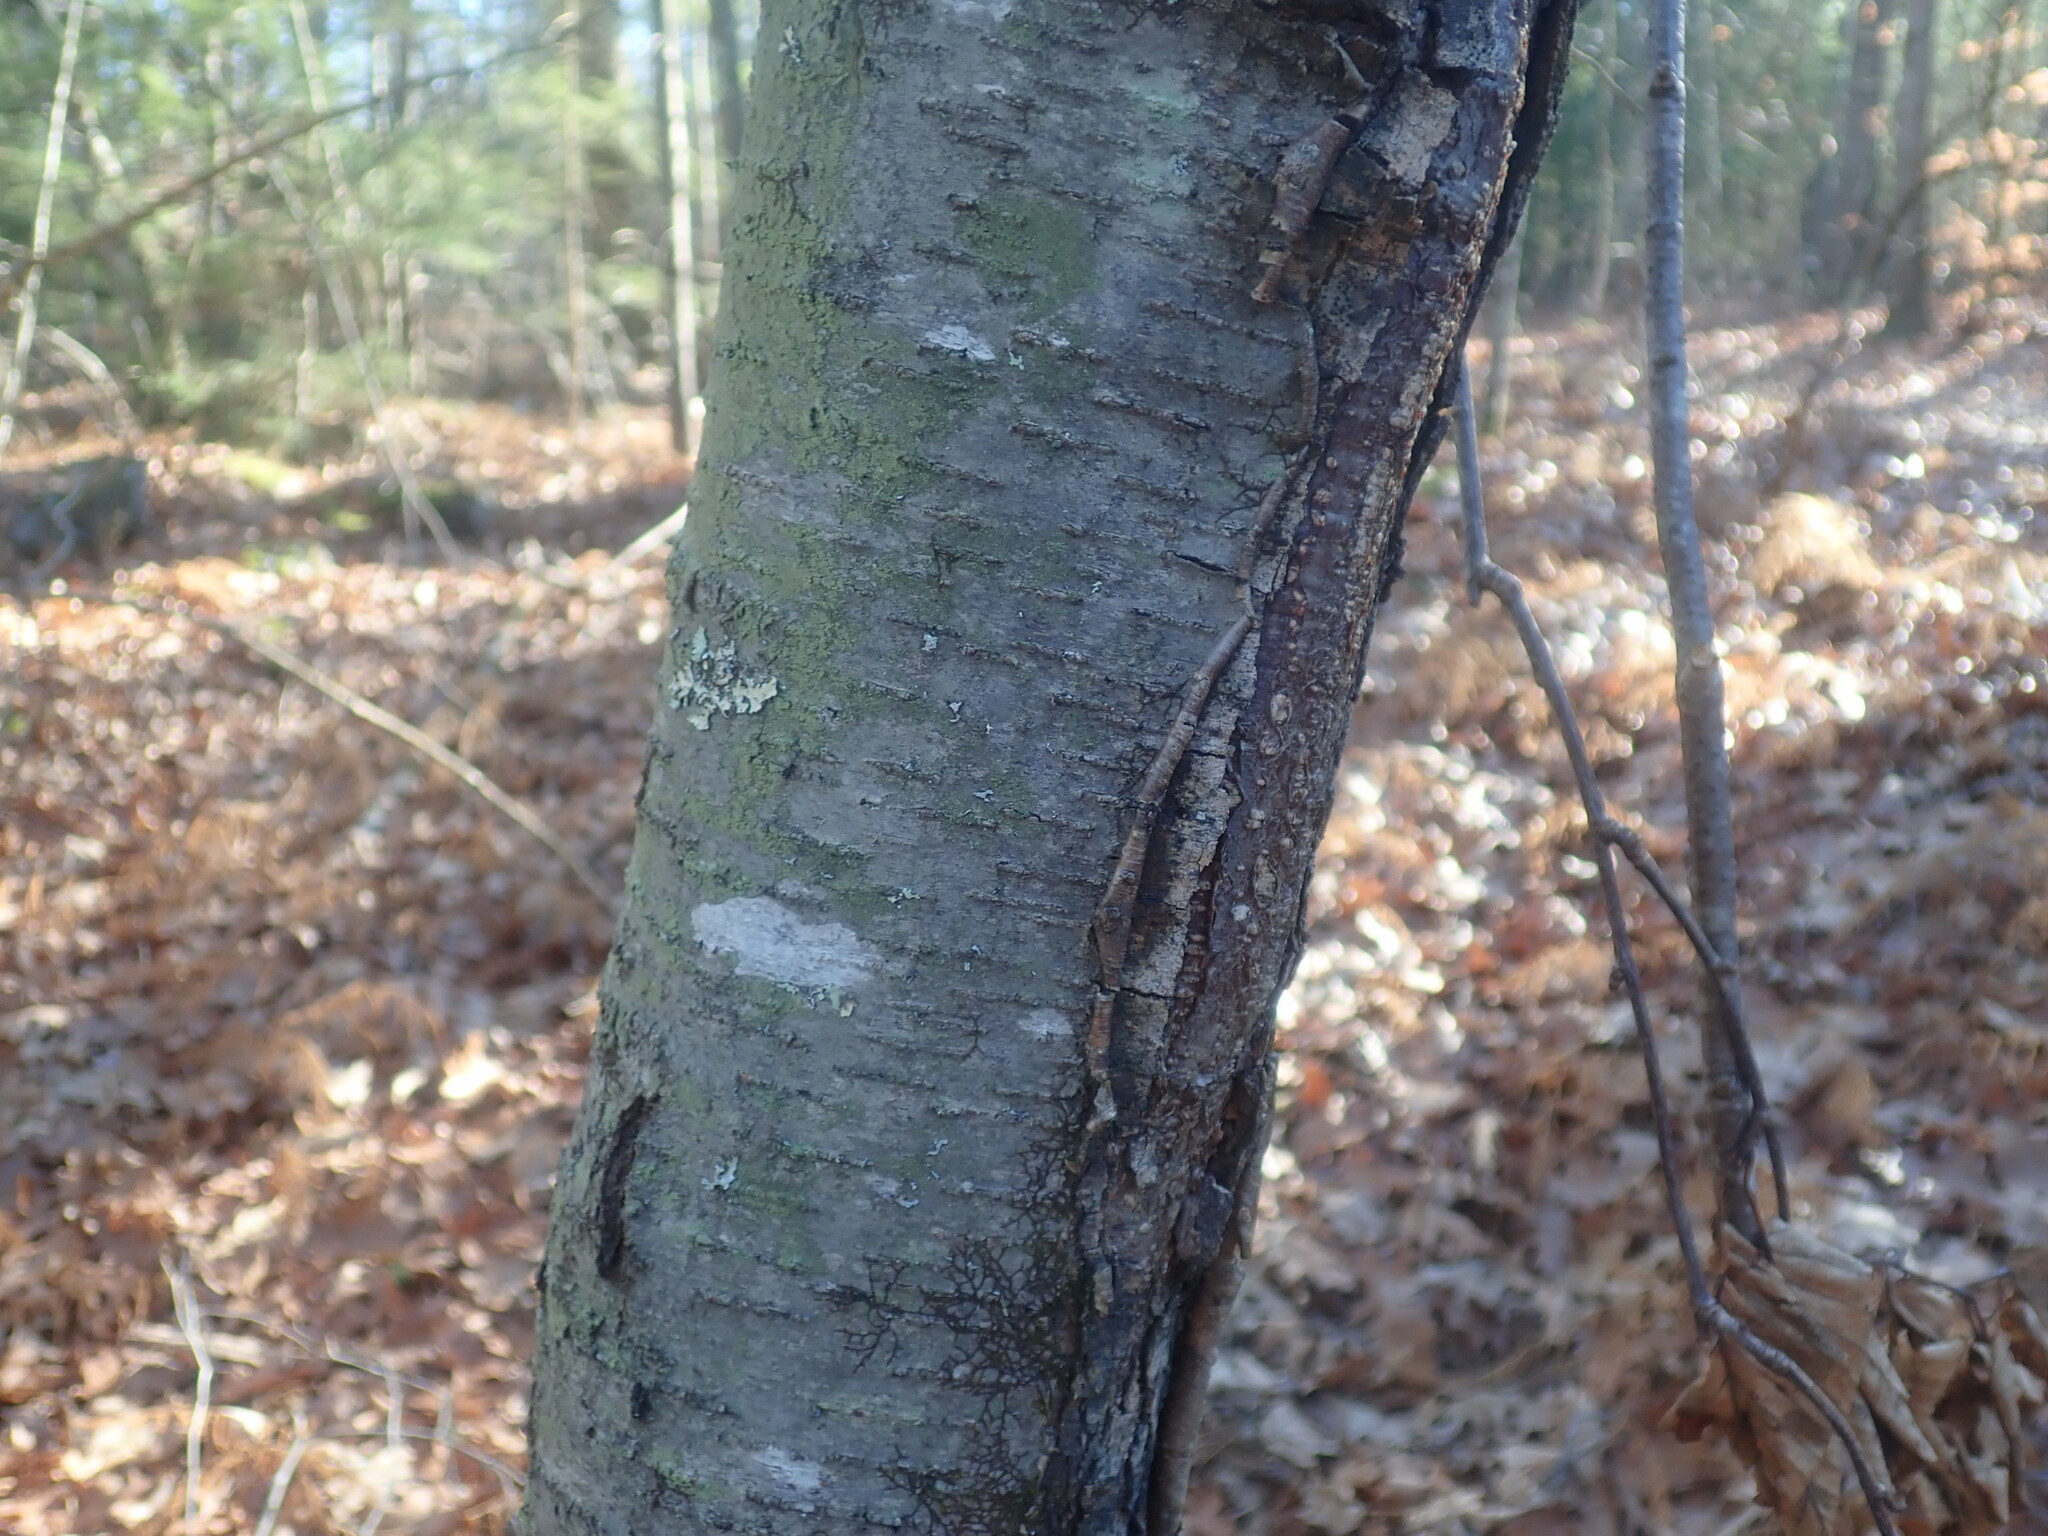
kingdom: Plantae
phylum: Tracheophyta
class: Magnoliopsida
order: Fagales
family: Betulaceae
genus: Betula
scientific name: Betula lenta
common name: Black birch
